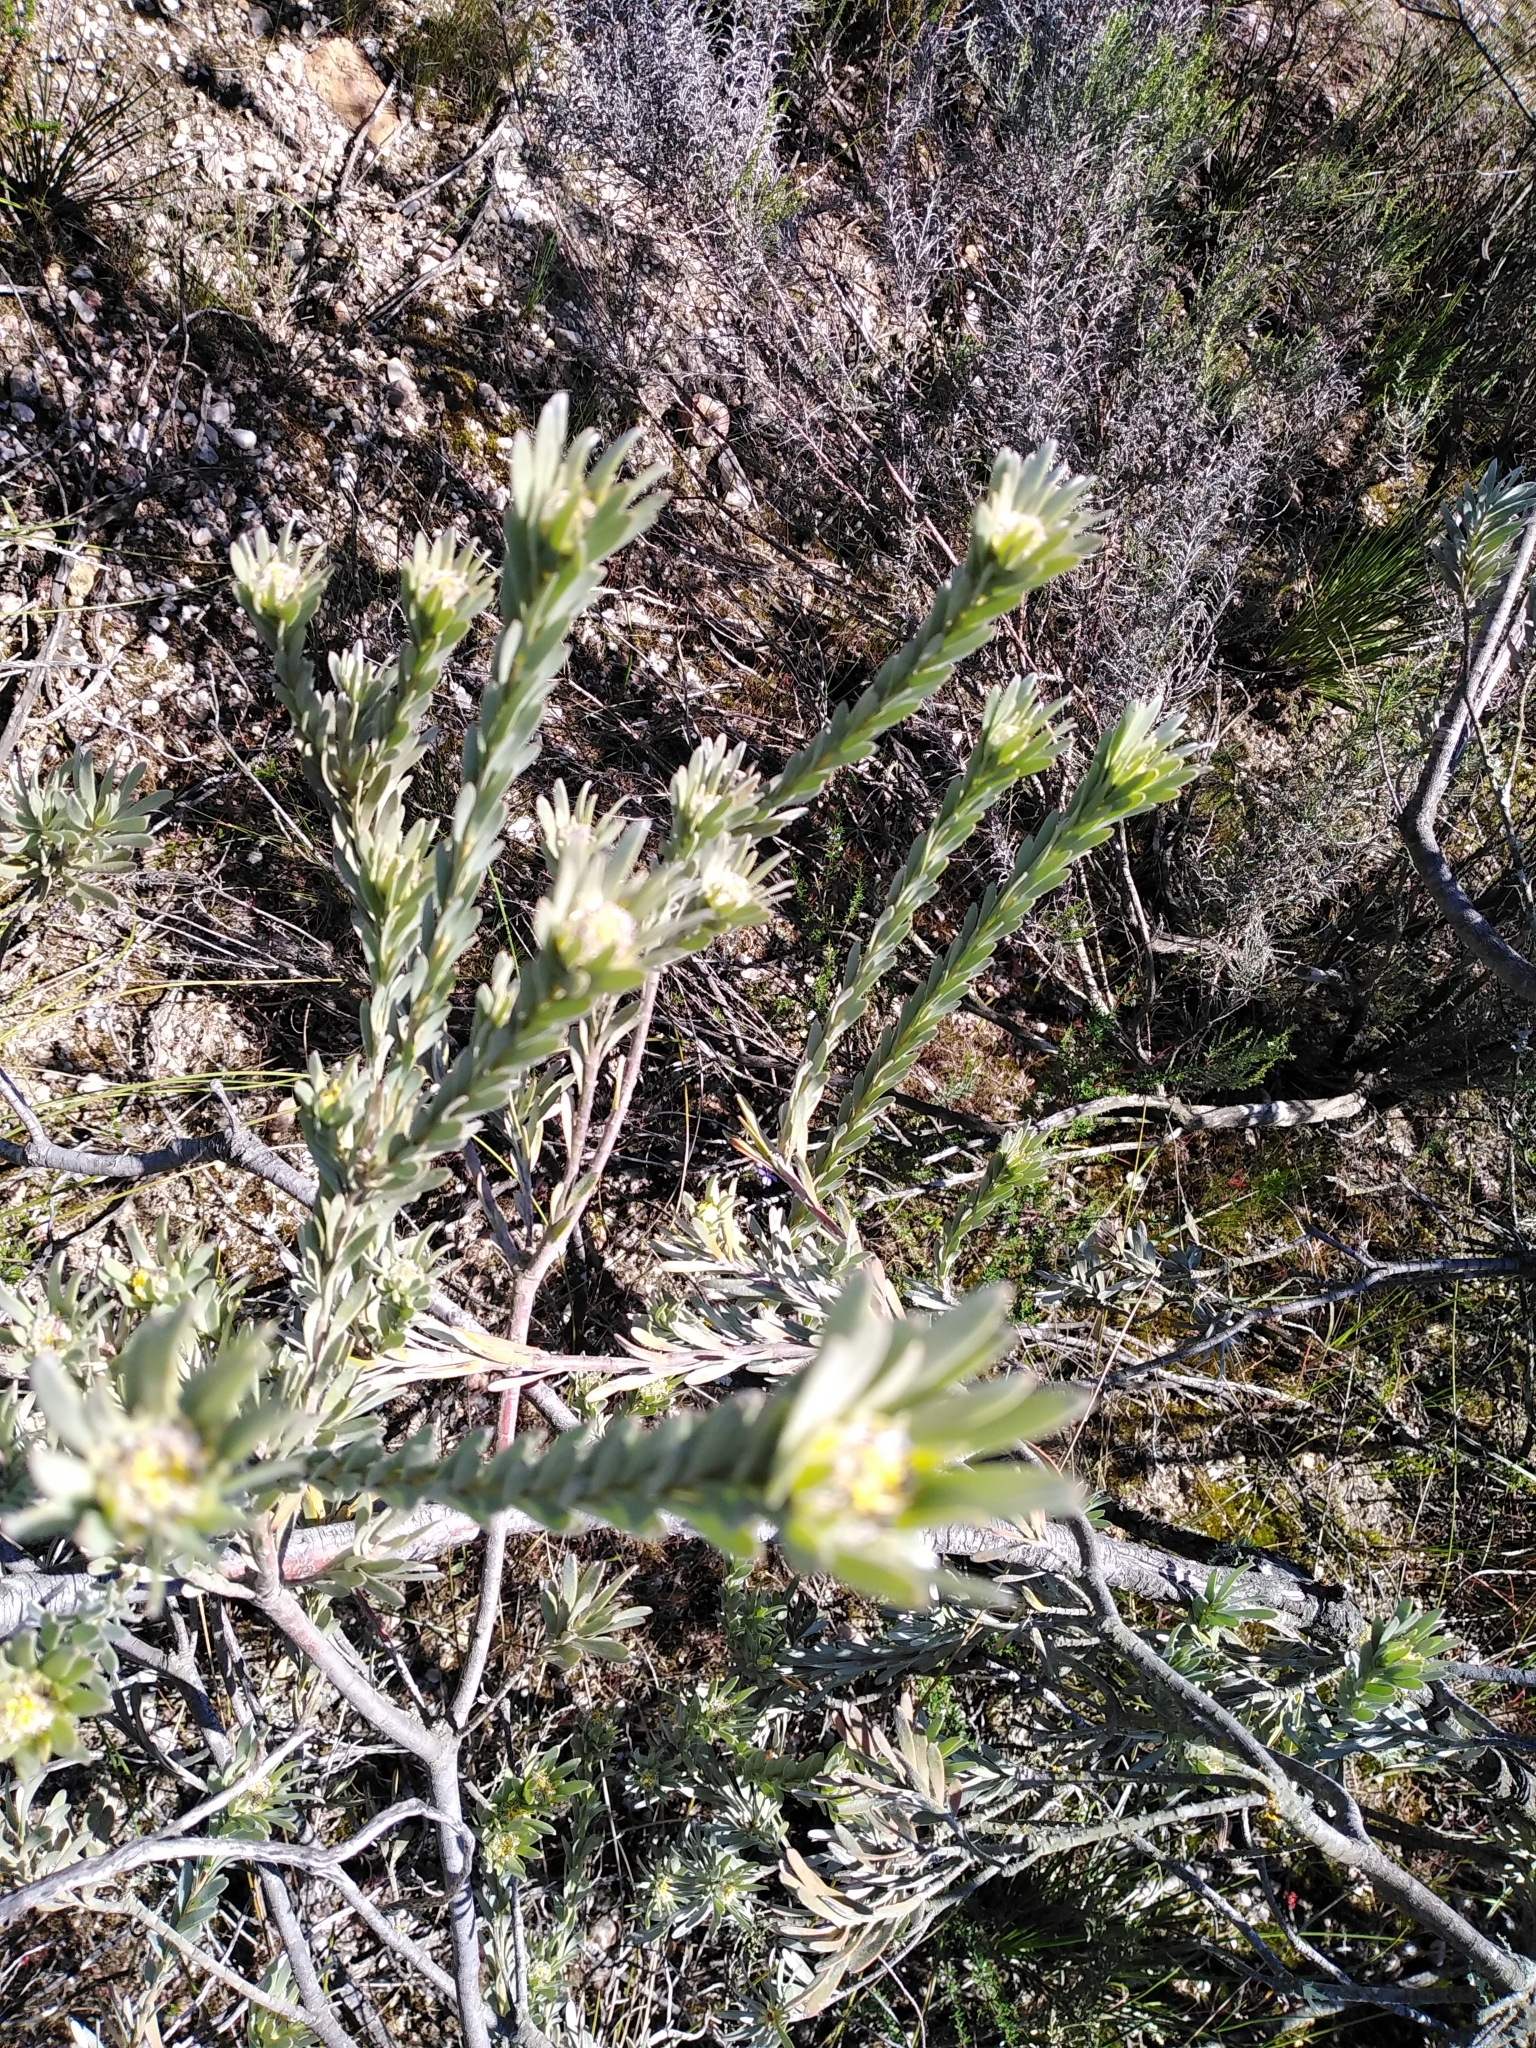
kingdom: Plantae
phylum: Tracheophyta
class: Magnoliopsida
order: Proteales
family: Proteaceae
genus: Leucadendron
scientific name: Leucadendron verticillatum
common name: Klapmuts conebush
